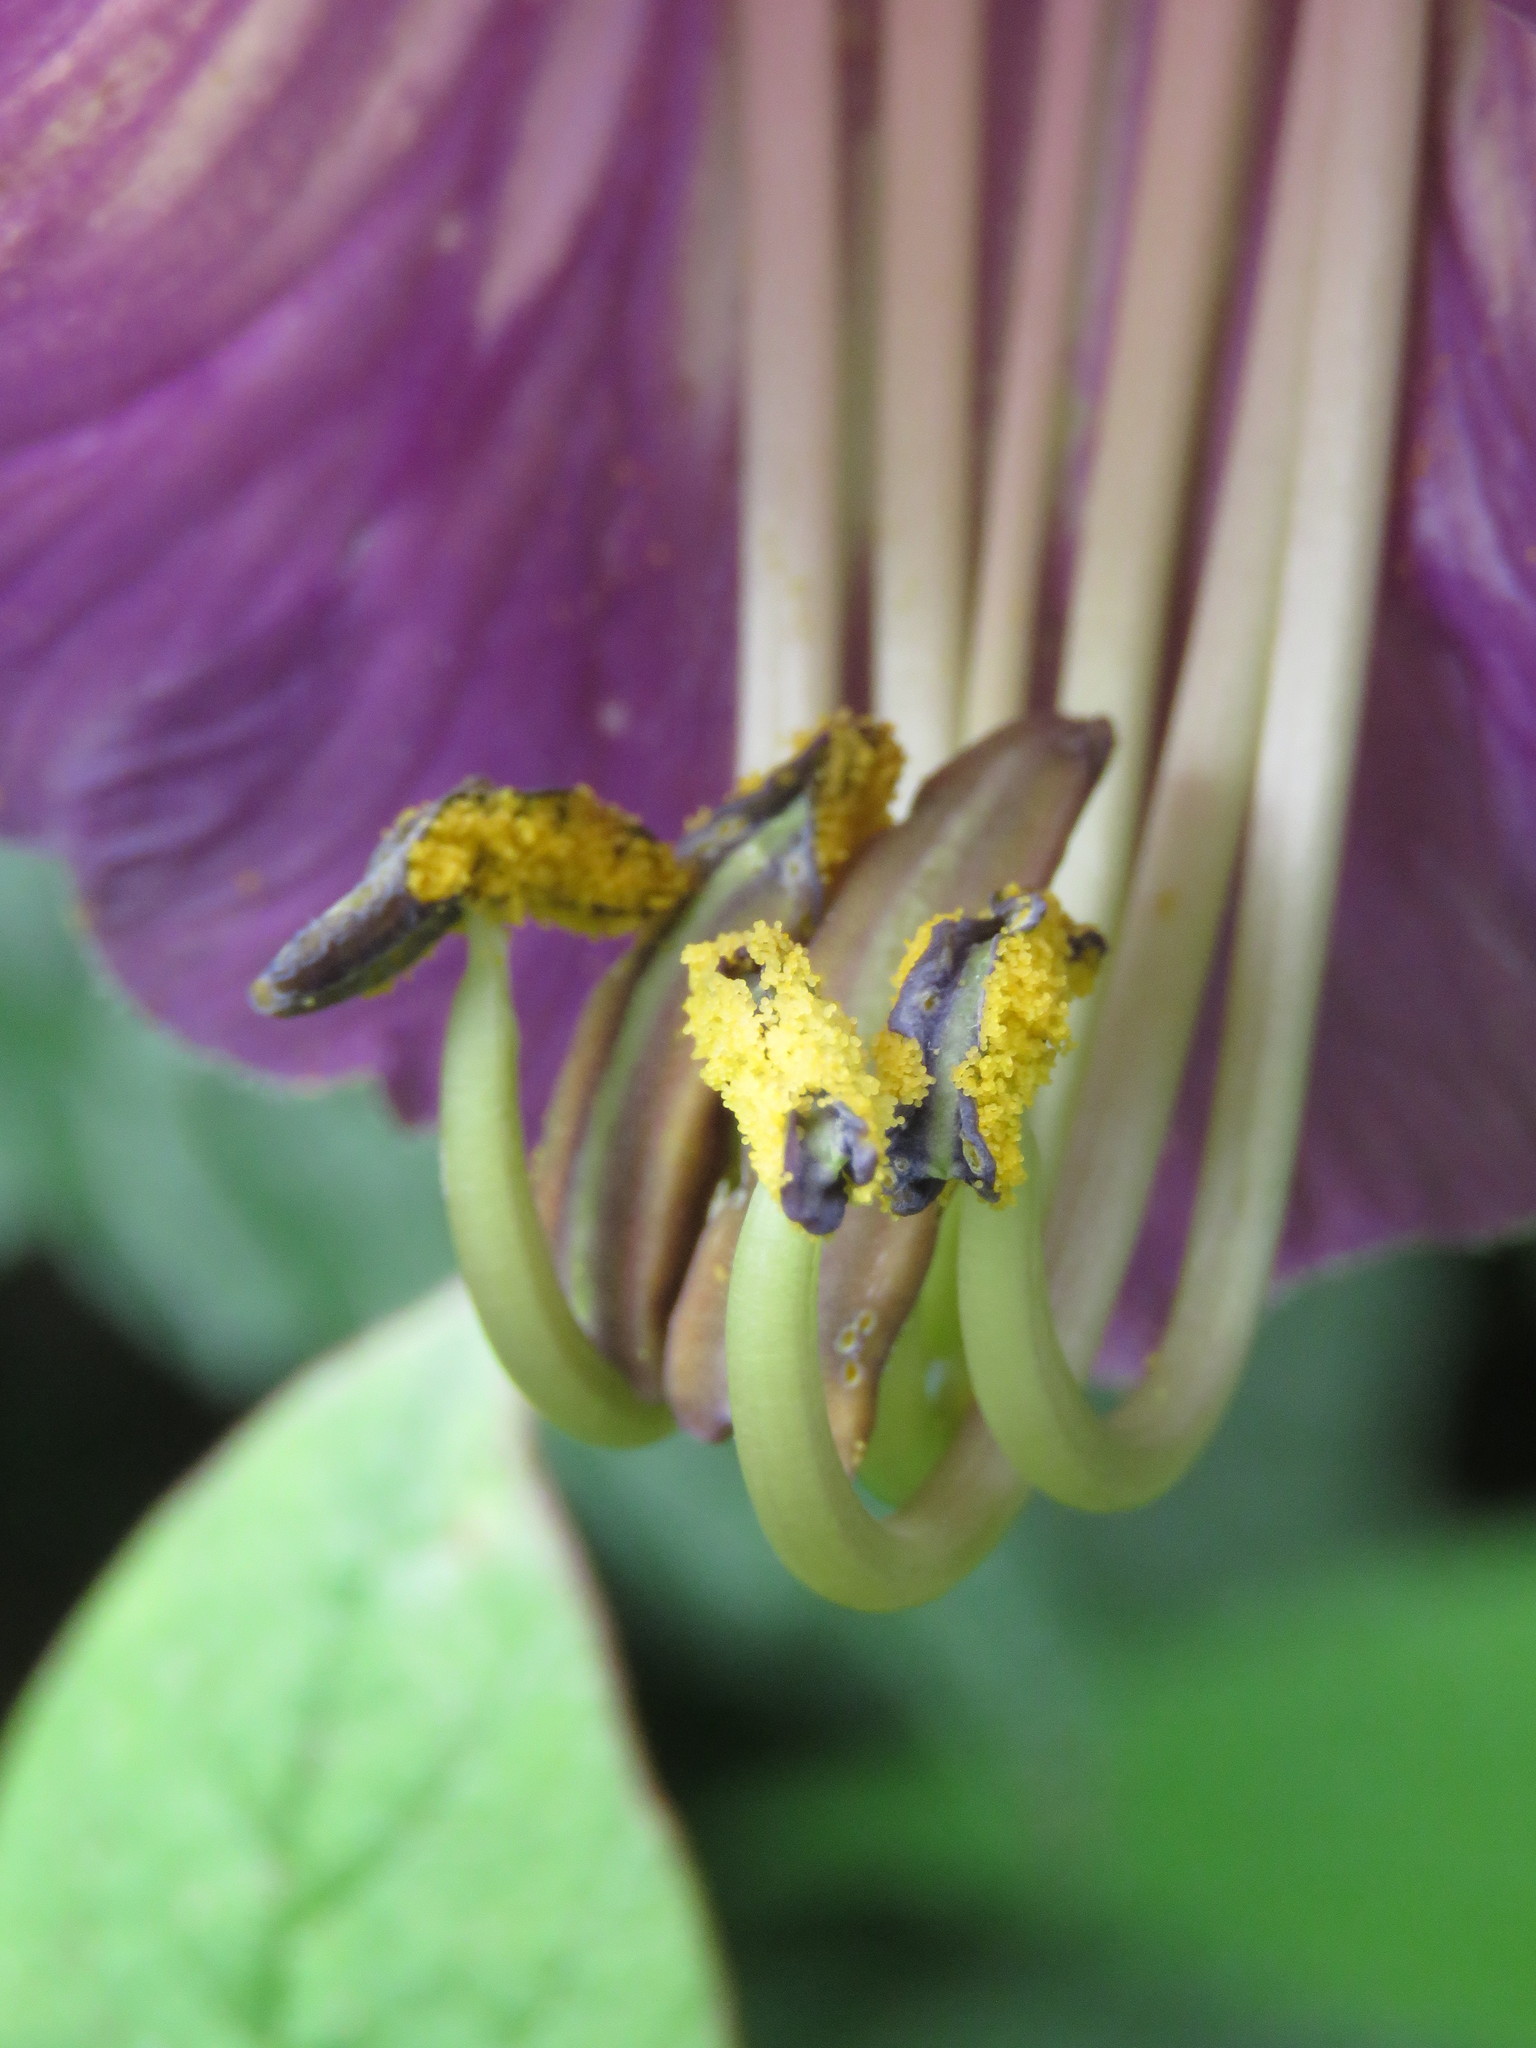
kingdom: Plantae
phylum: Tracheophyta
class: Magnoliopsida
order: Ericales
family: Polemoniaceae
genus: Cobaea
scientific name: Cobaea scandens
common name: Cup-and-saucer-vine
